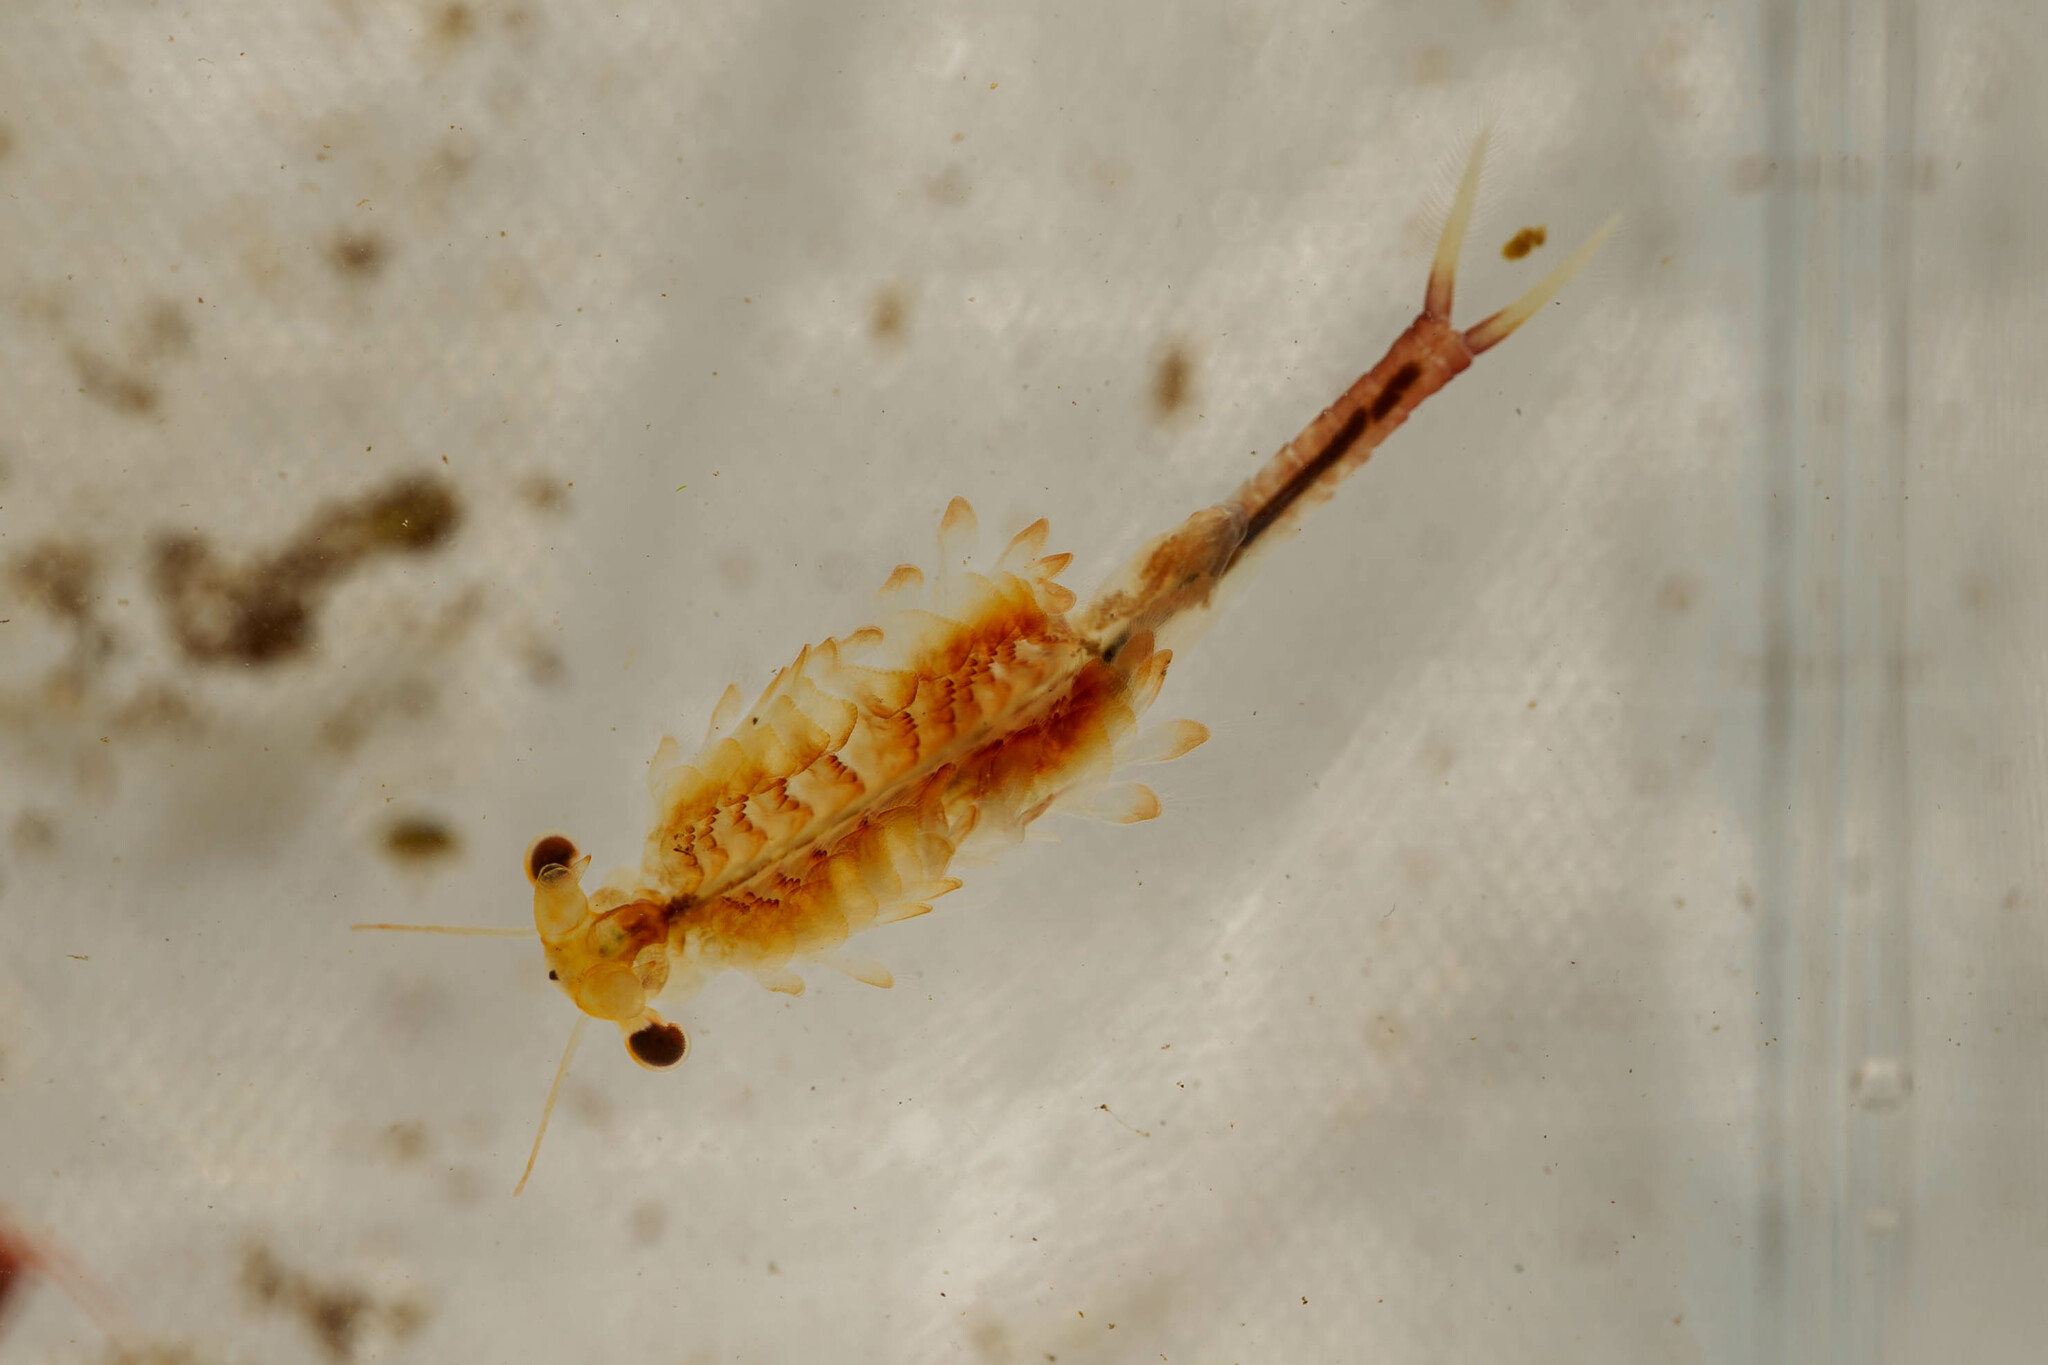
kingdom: Animalia
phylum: Arthropoda
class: Branchiopoda
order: Anostraca
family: Chirocephalidae
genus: Eubranchipus
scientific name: Eubranchipus oregonus
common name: Oregon fairy shrimp
